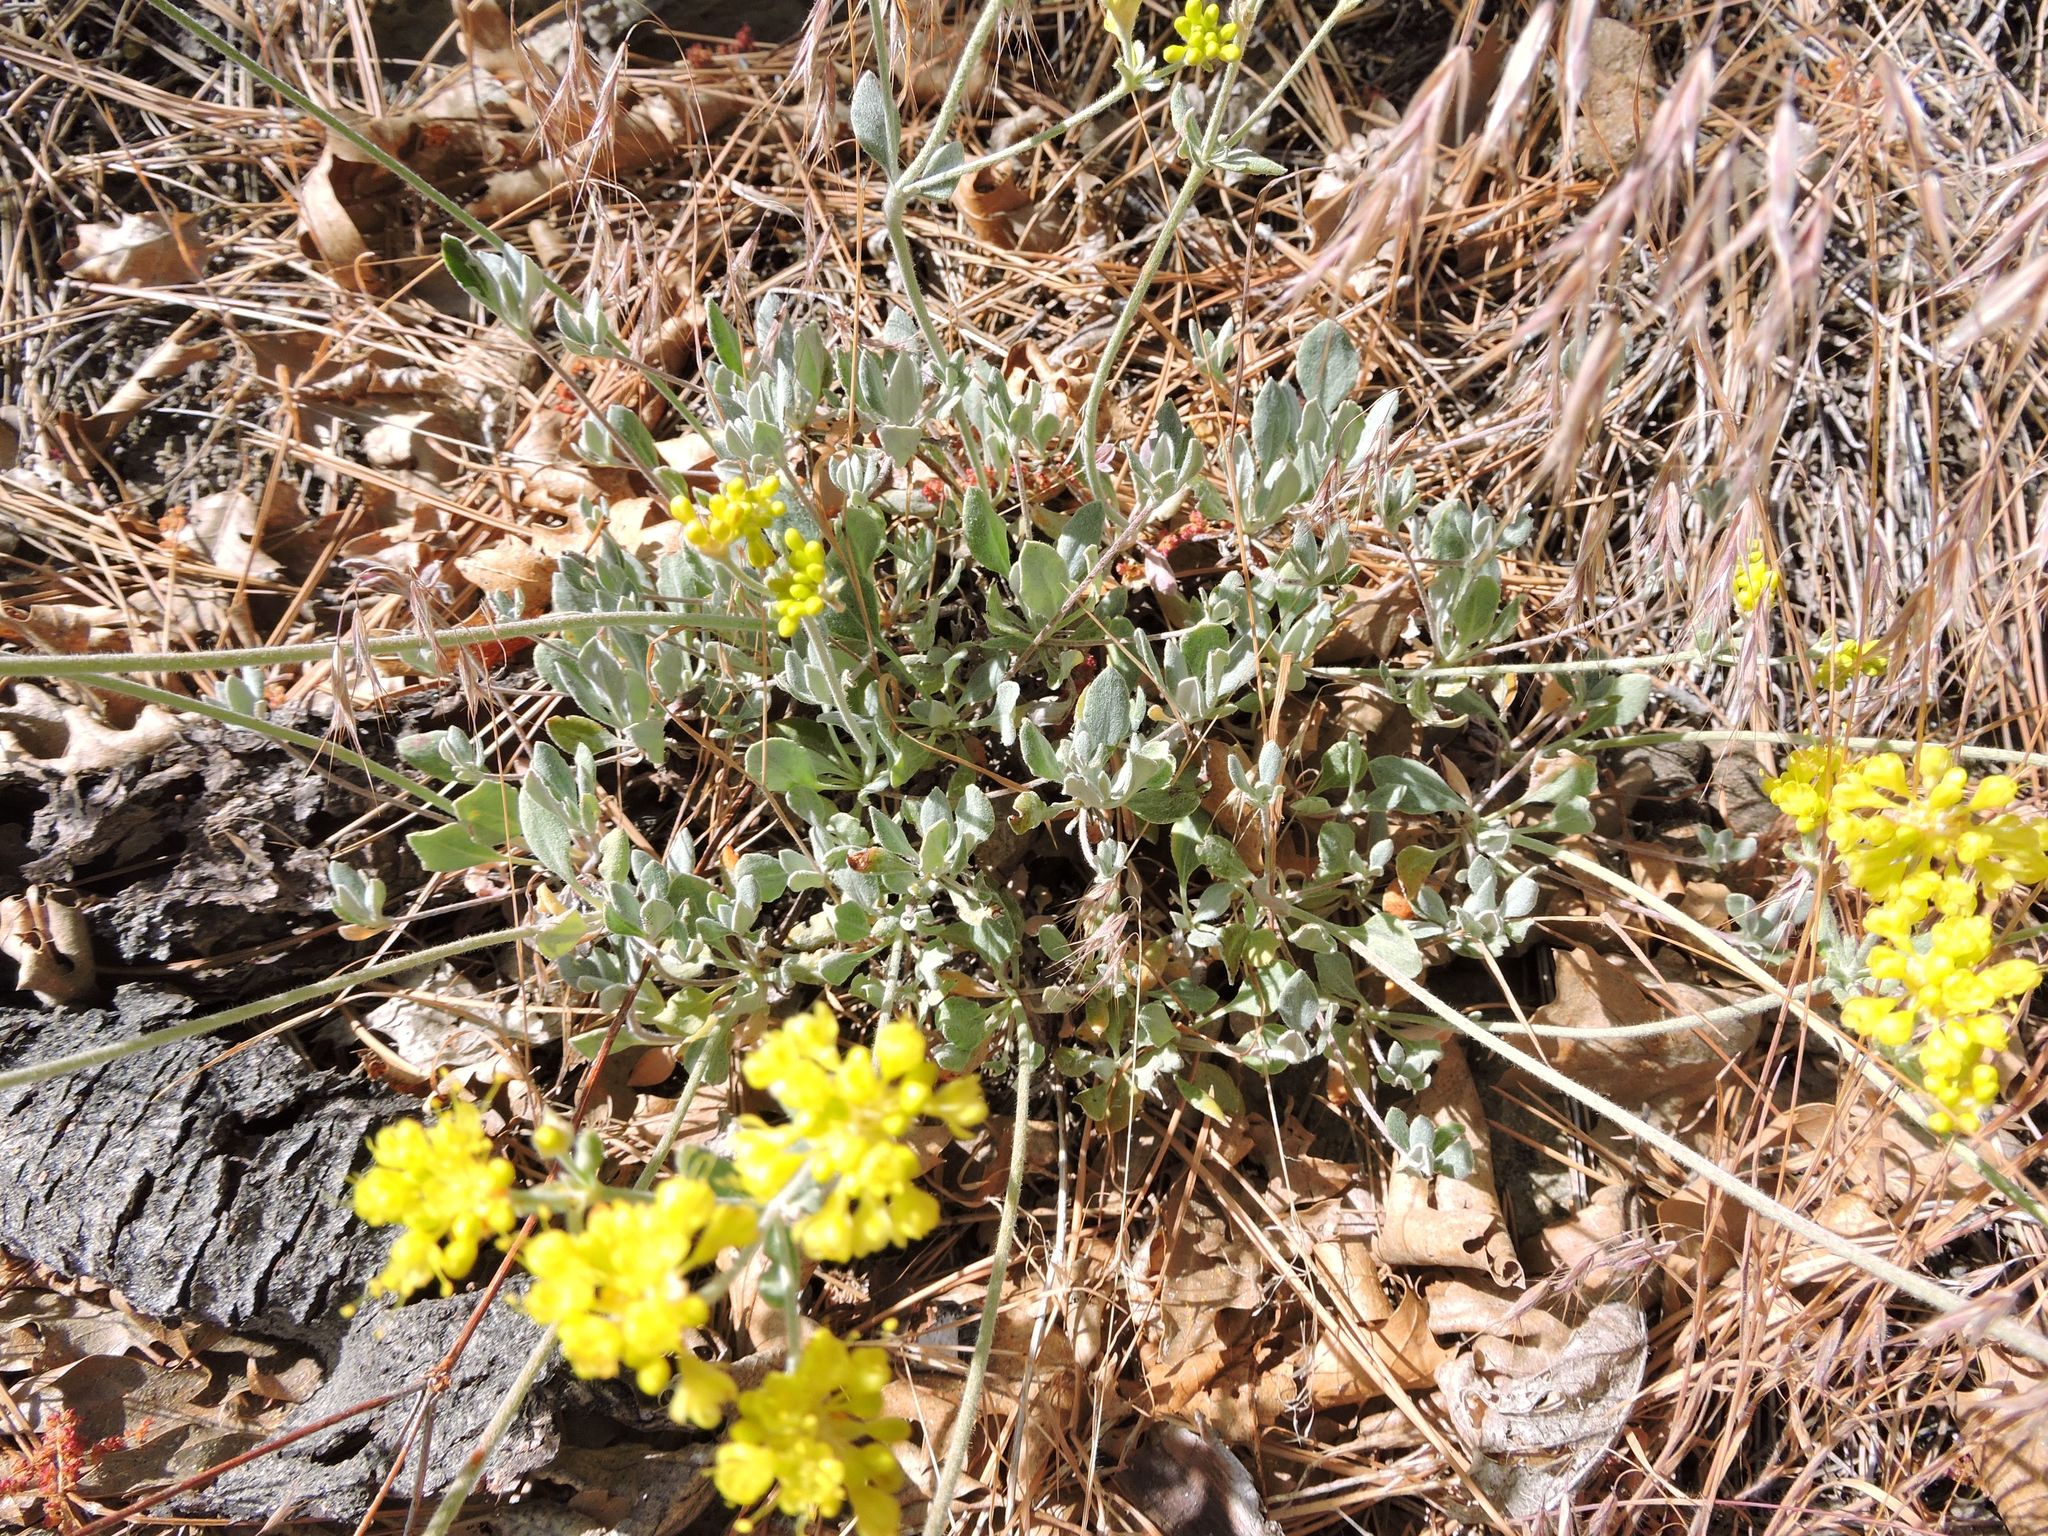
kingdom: Plantae
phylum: Tracheophyta
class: Magnoliopsida
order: Caryophyllales
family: Polygonaceae
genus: Eriogonum
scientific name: Eriogonum umbellatum
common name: Sulfur-buckwheat
